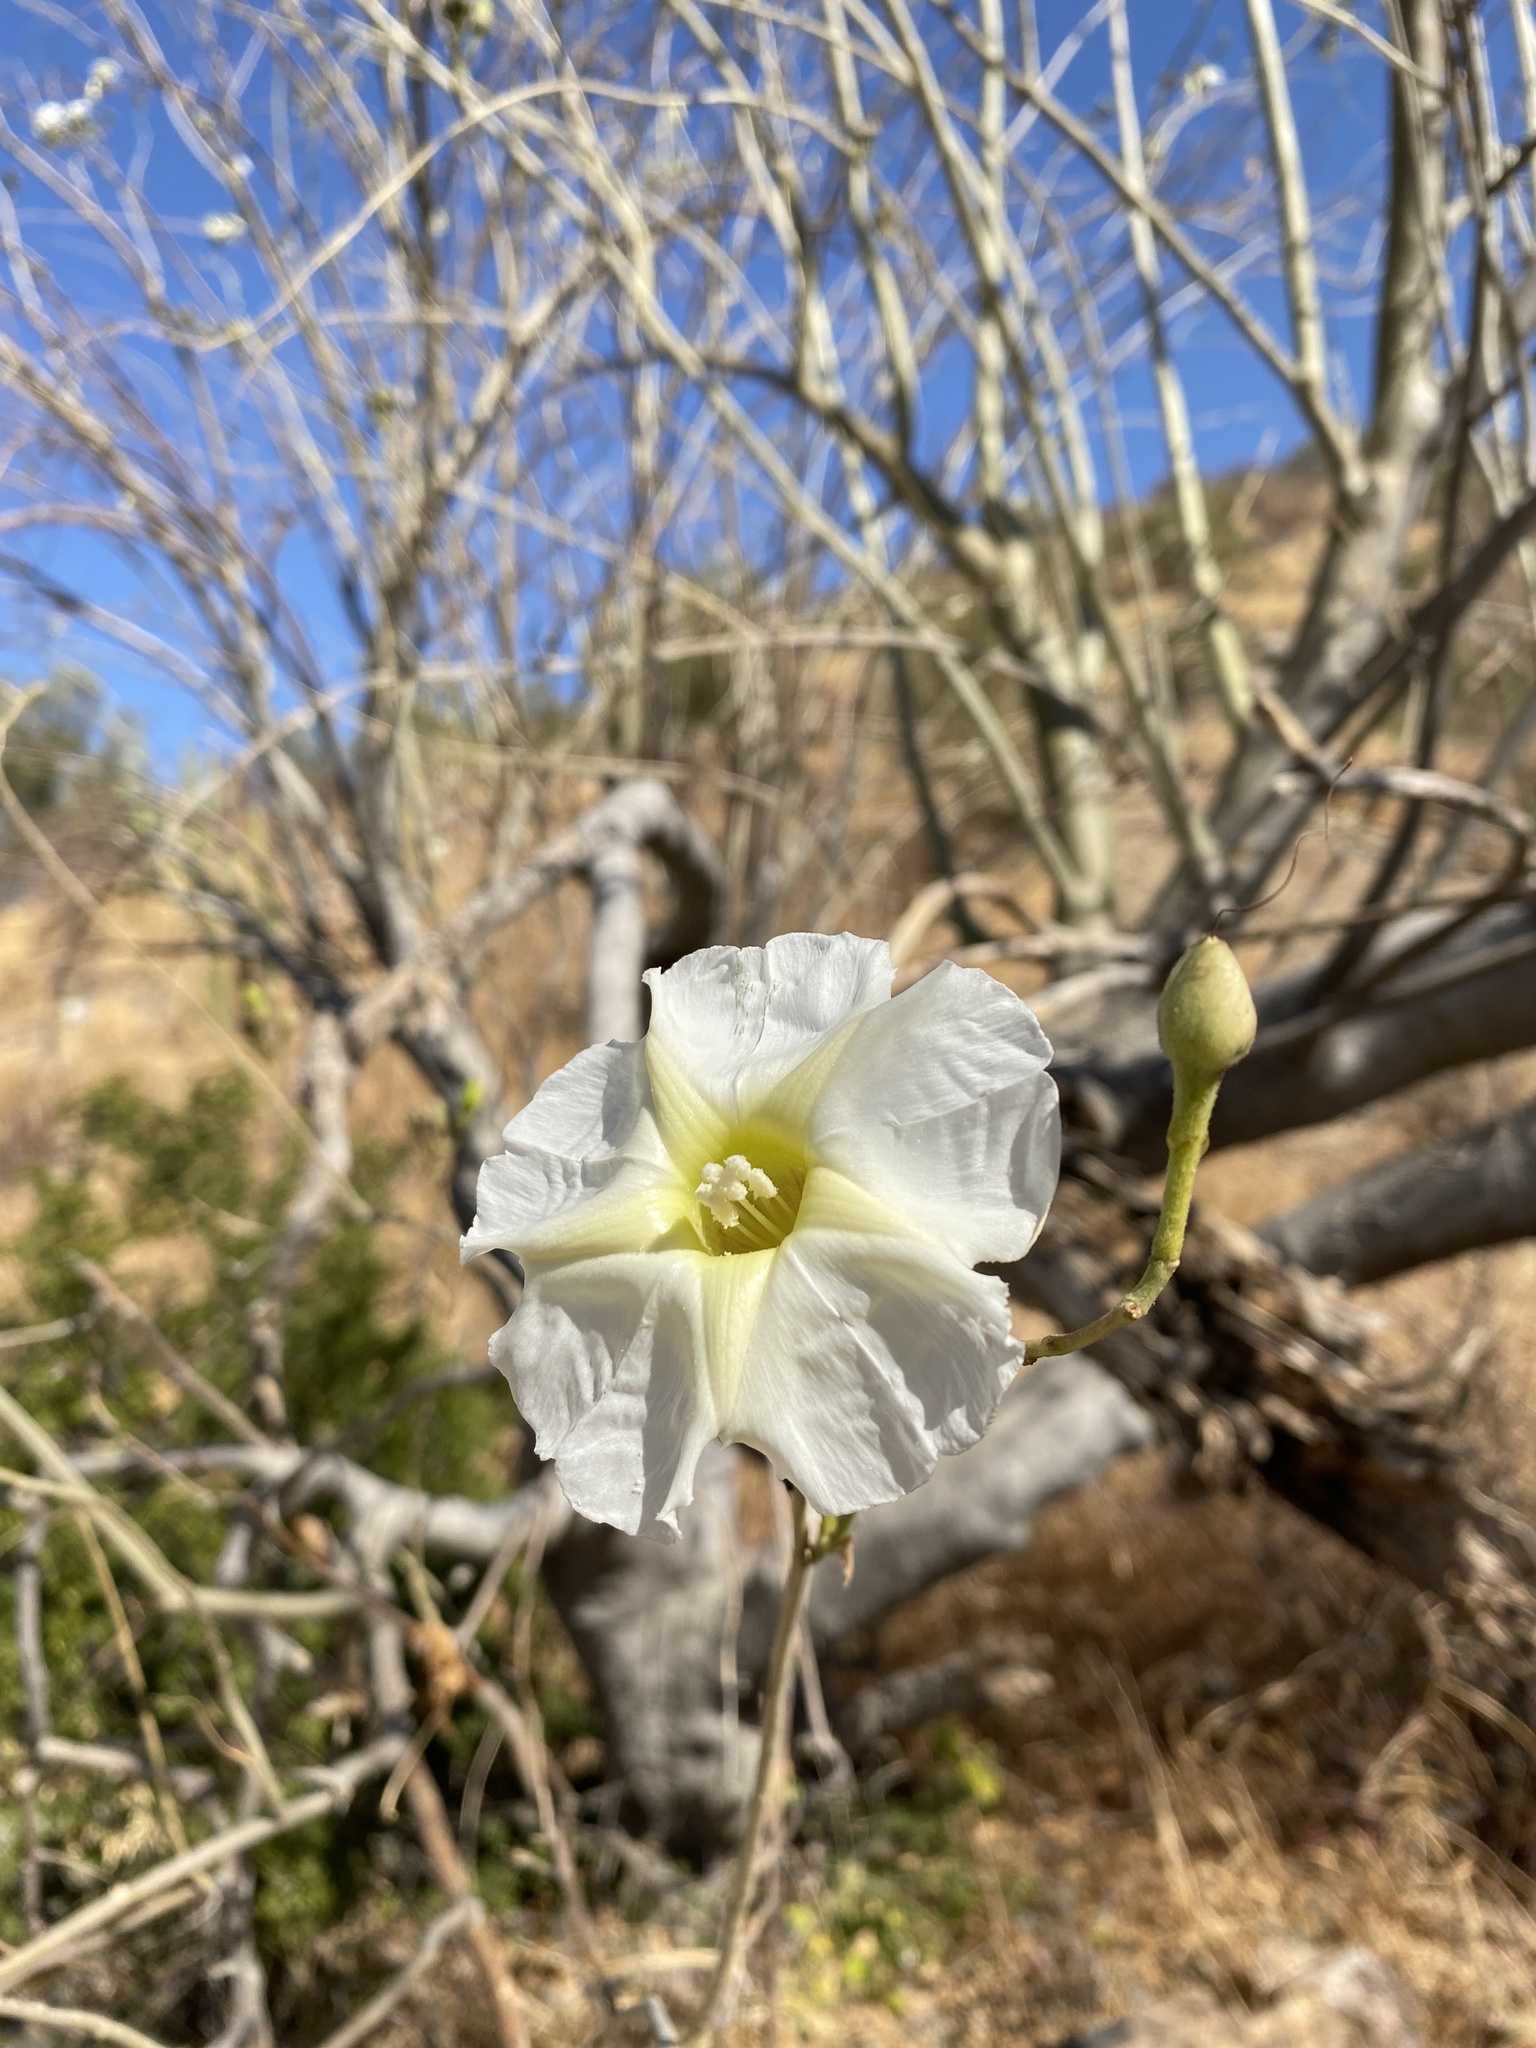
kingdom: Plantae
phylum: Tracheophyta
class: Magnoliopsida
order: Solanales
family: Convolvulaceae
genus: Ipomoea
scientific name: Ipomoea arborescens
